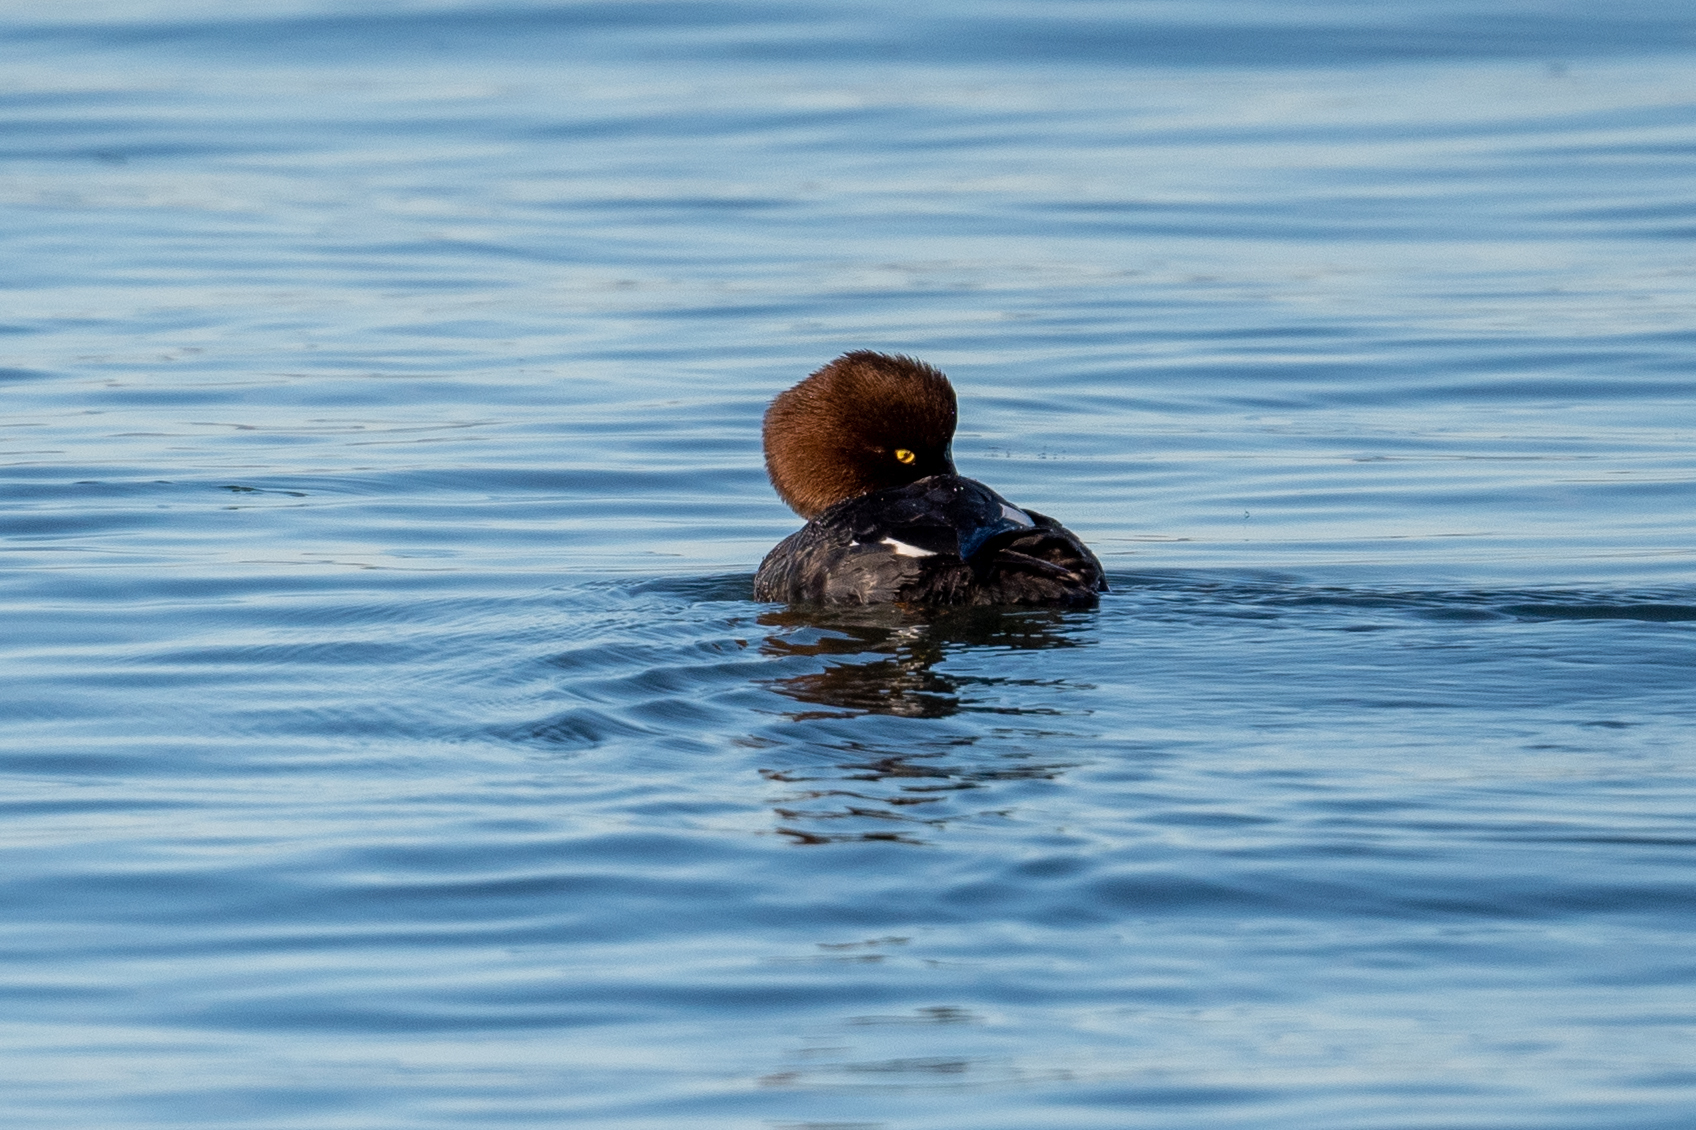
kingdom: Animalia
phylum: Chordata
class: Aves
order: Anseriformes
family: Anatidae
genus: Bucephala
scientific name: Bucephala clangula
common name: Common goldeneye
